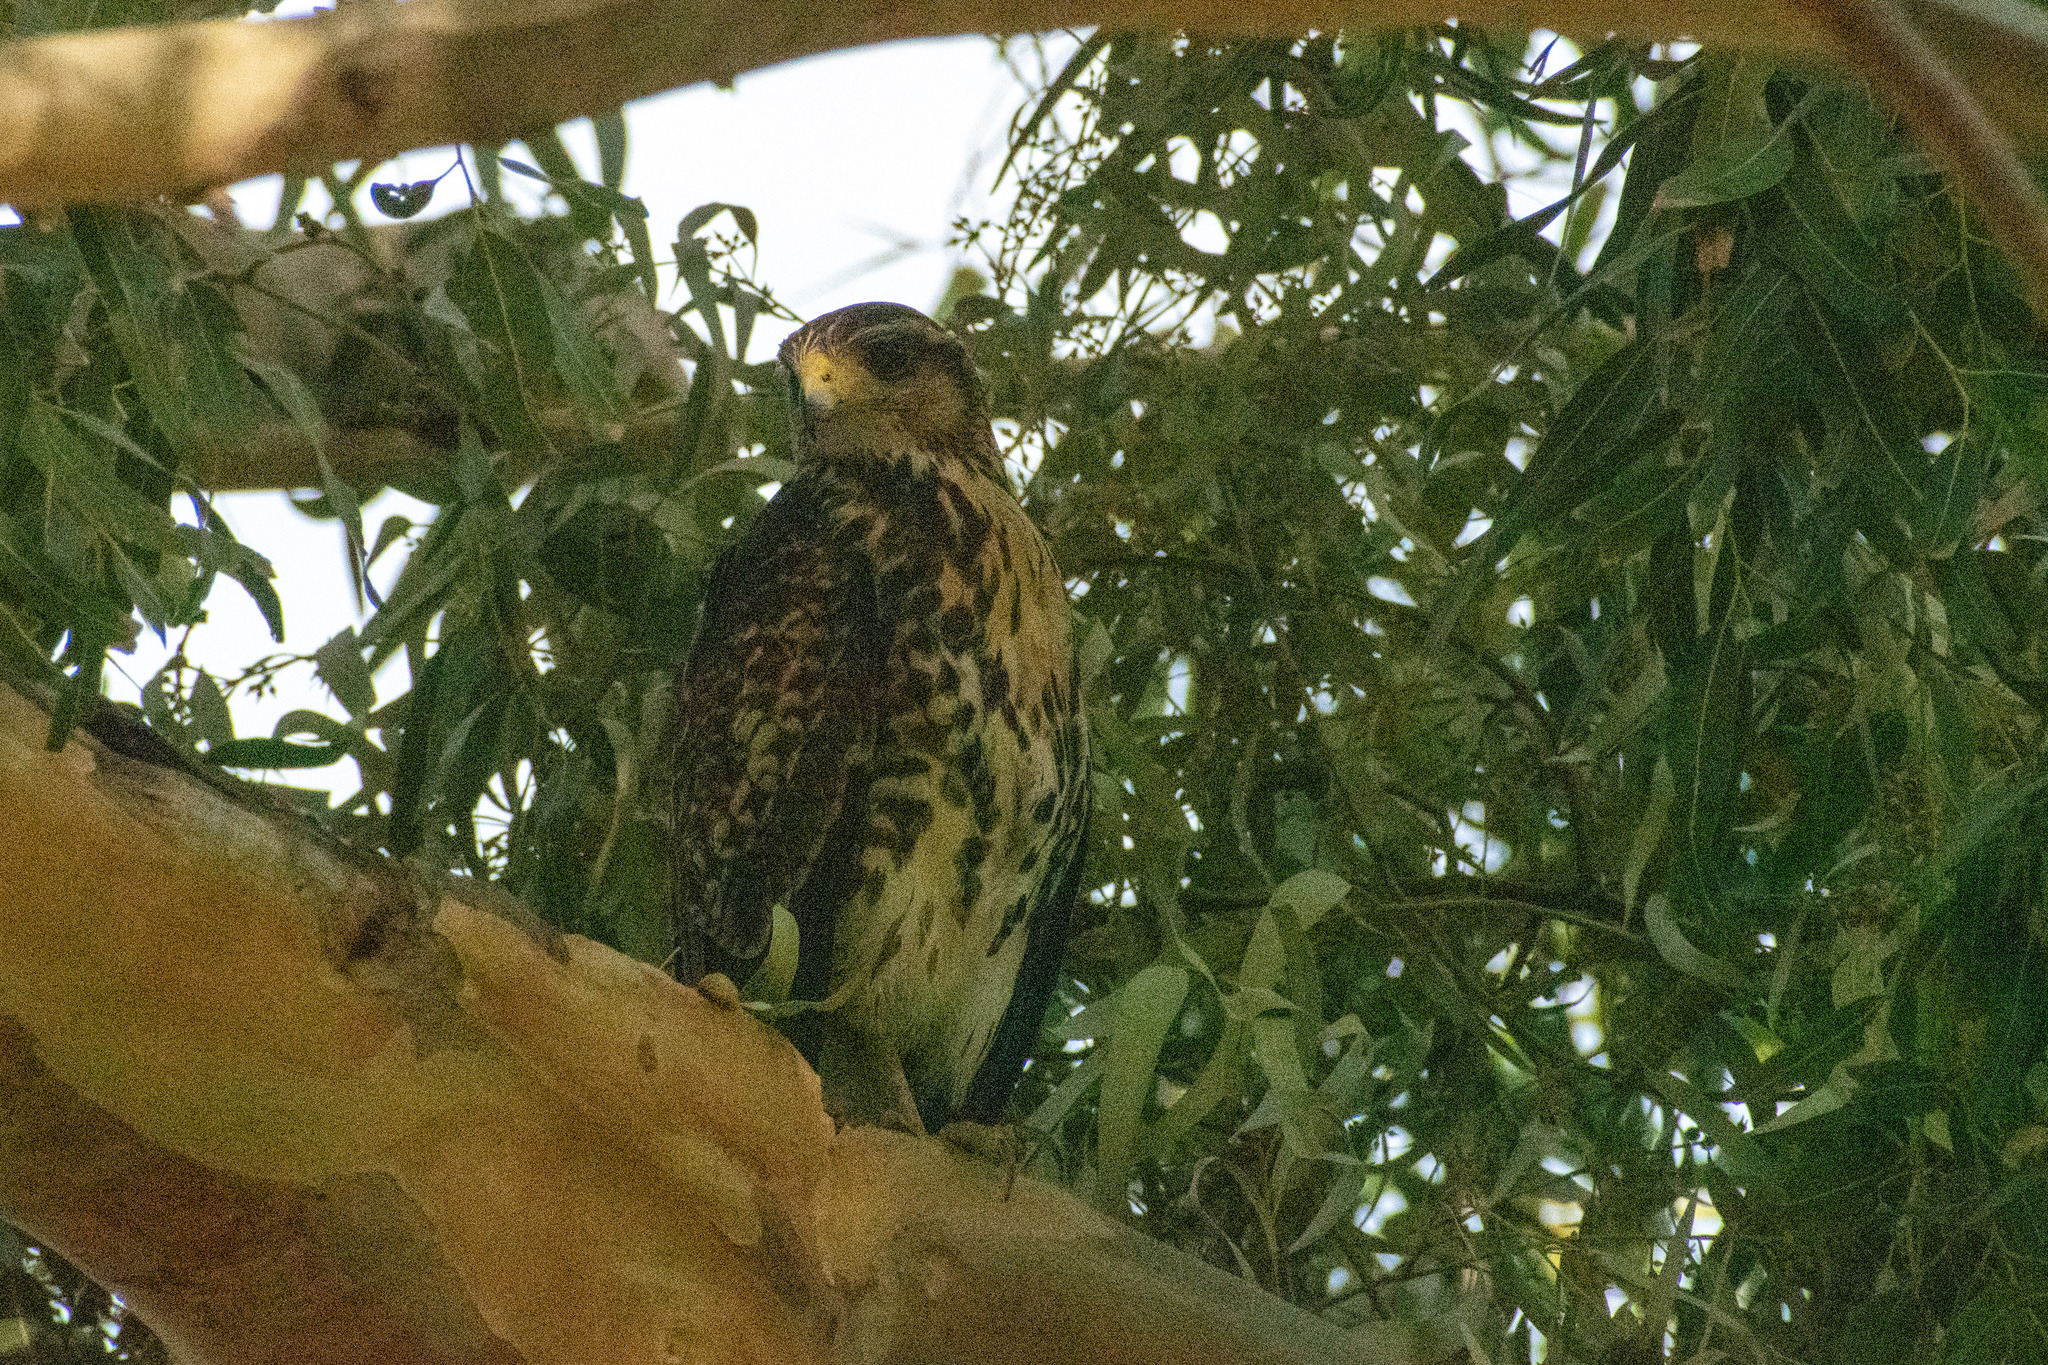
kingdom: Animalia
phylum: Chordata
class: Aves
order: Accipitriformes
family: Accipitridae
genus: Parabuteo
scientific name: Parabuteo unicinctus
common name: Harris's hawk
